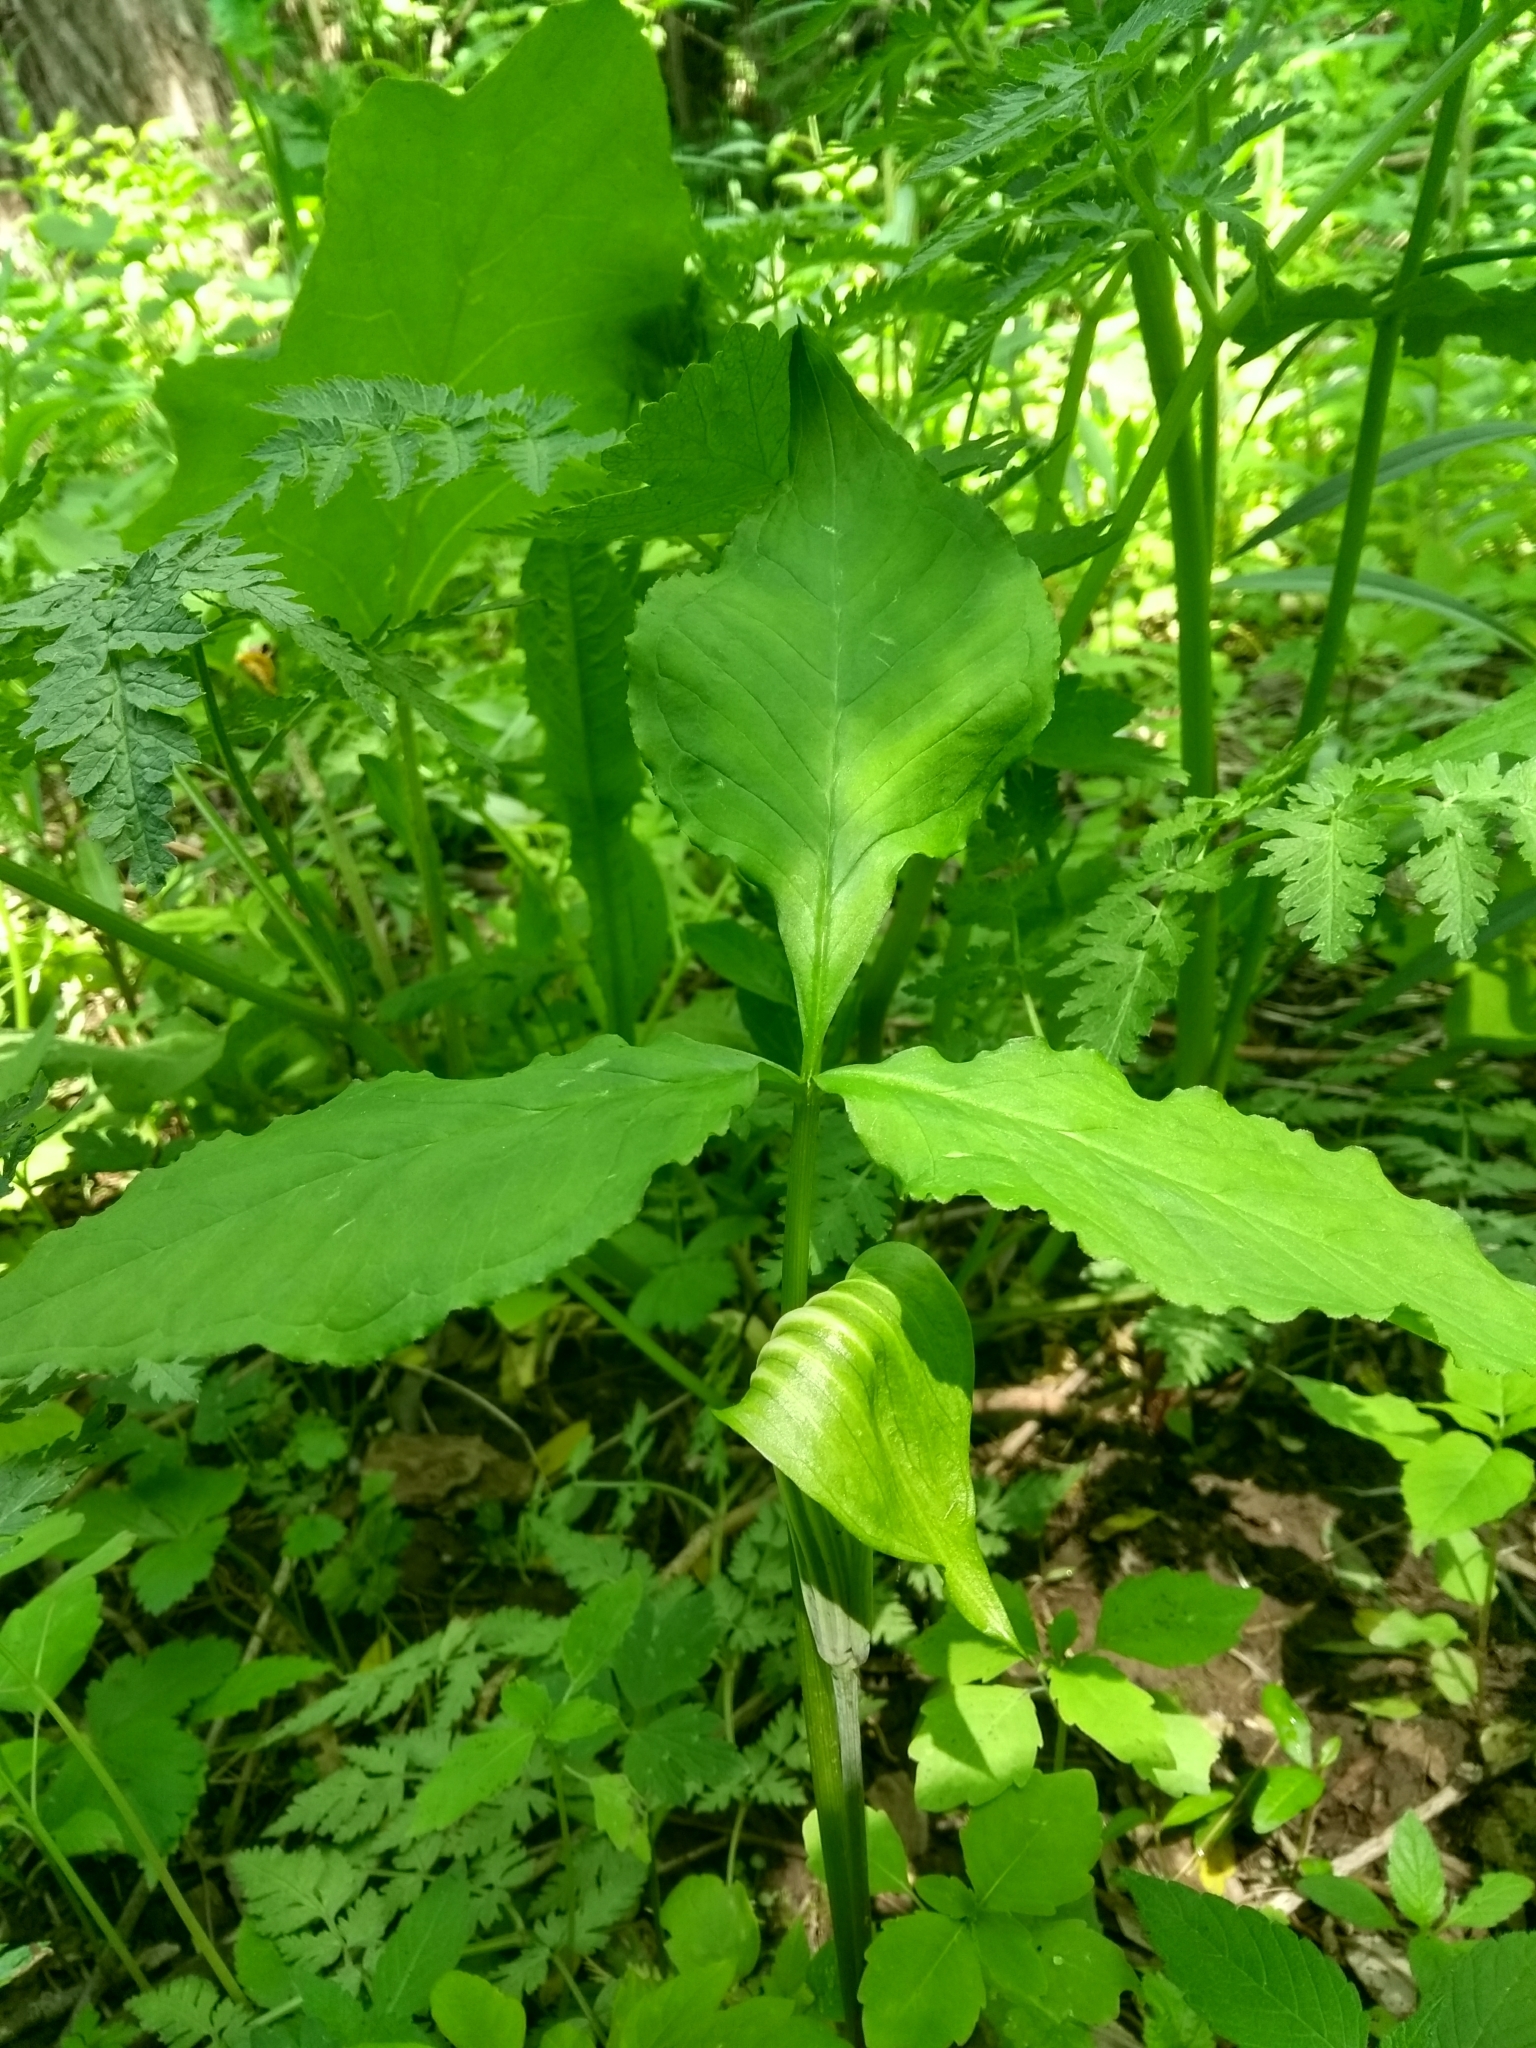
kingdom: Plantae
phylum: Tracheophyta
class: Liliopsida
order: Alismatales
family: Araceae
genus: Arisaema
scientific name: Arisaema stewardsonii
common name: Swamp jack-in-the-pulpit
